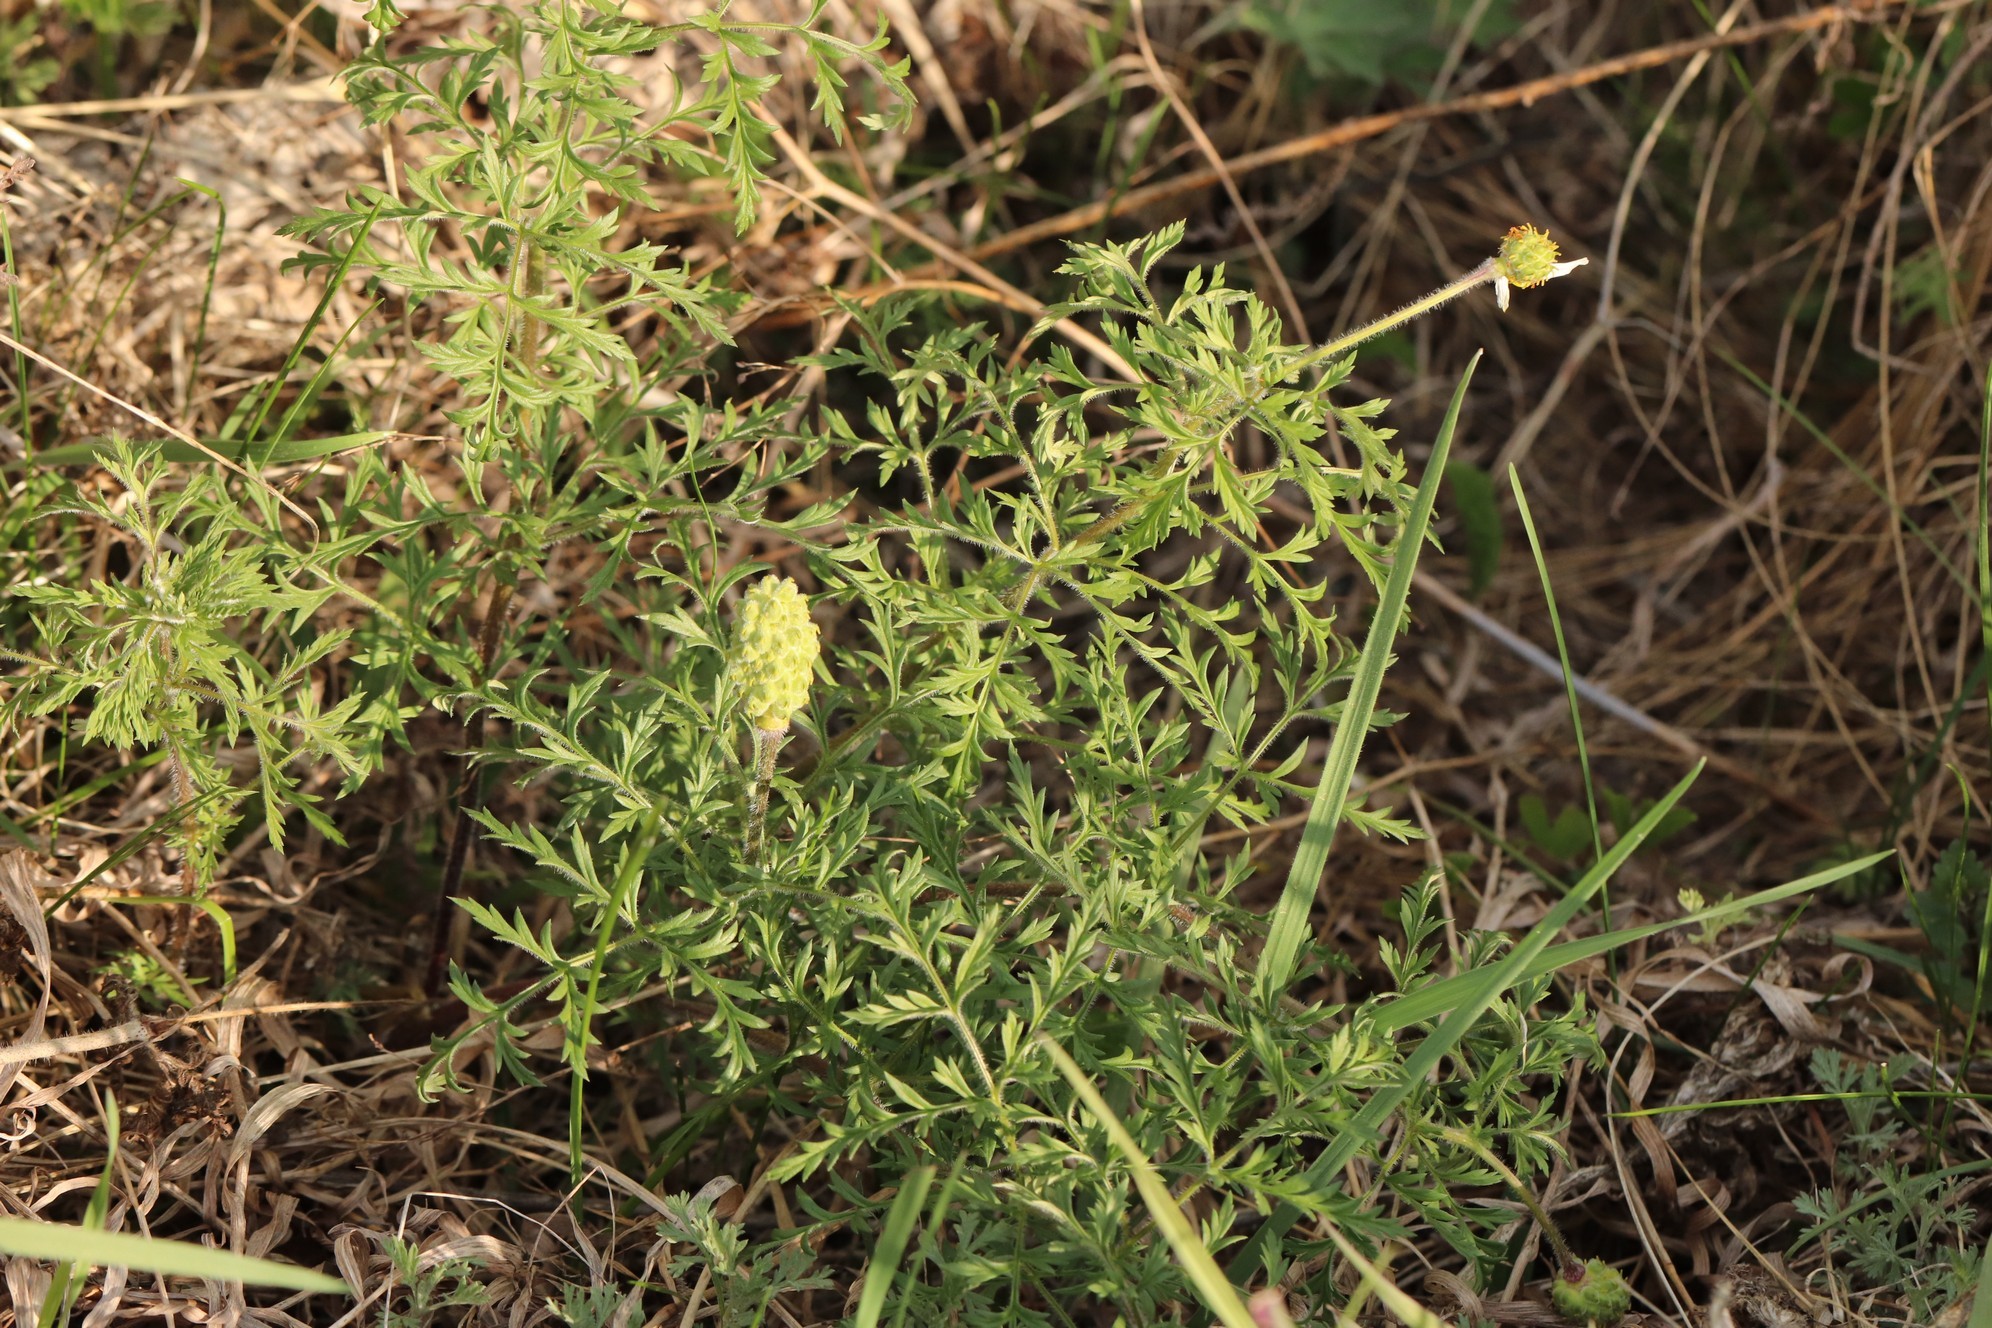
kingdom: Plantae
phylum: Tracheophyta
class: Magnoliopsida
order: Ranunculales
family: Ranunculaceae
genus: Adonis
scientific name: Adonis villosa
